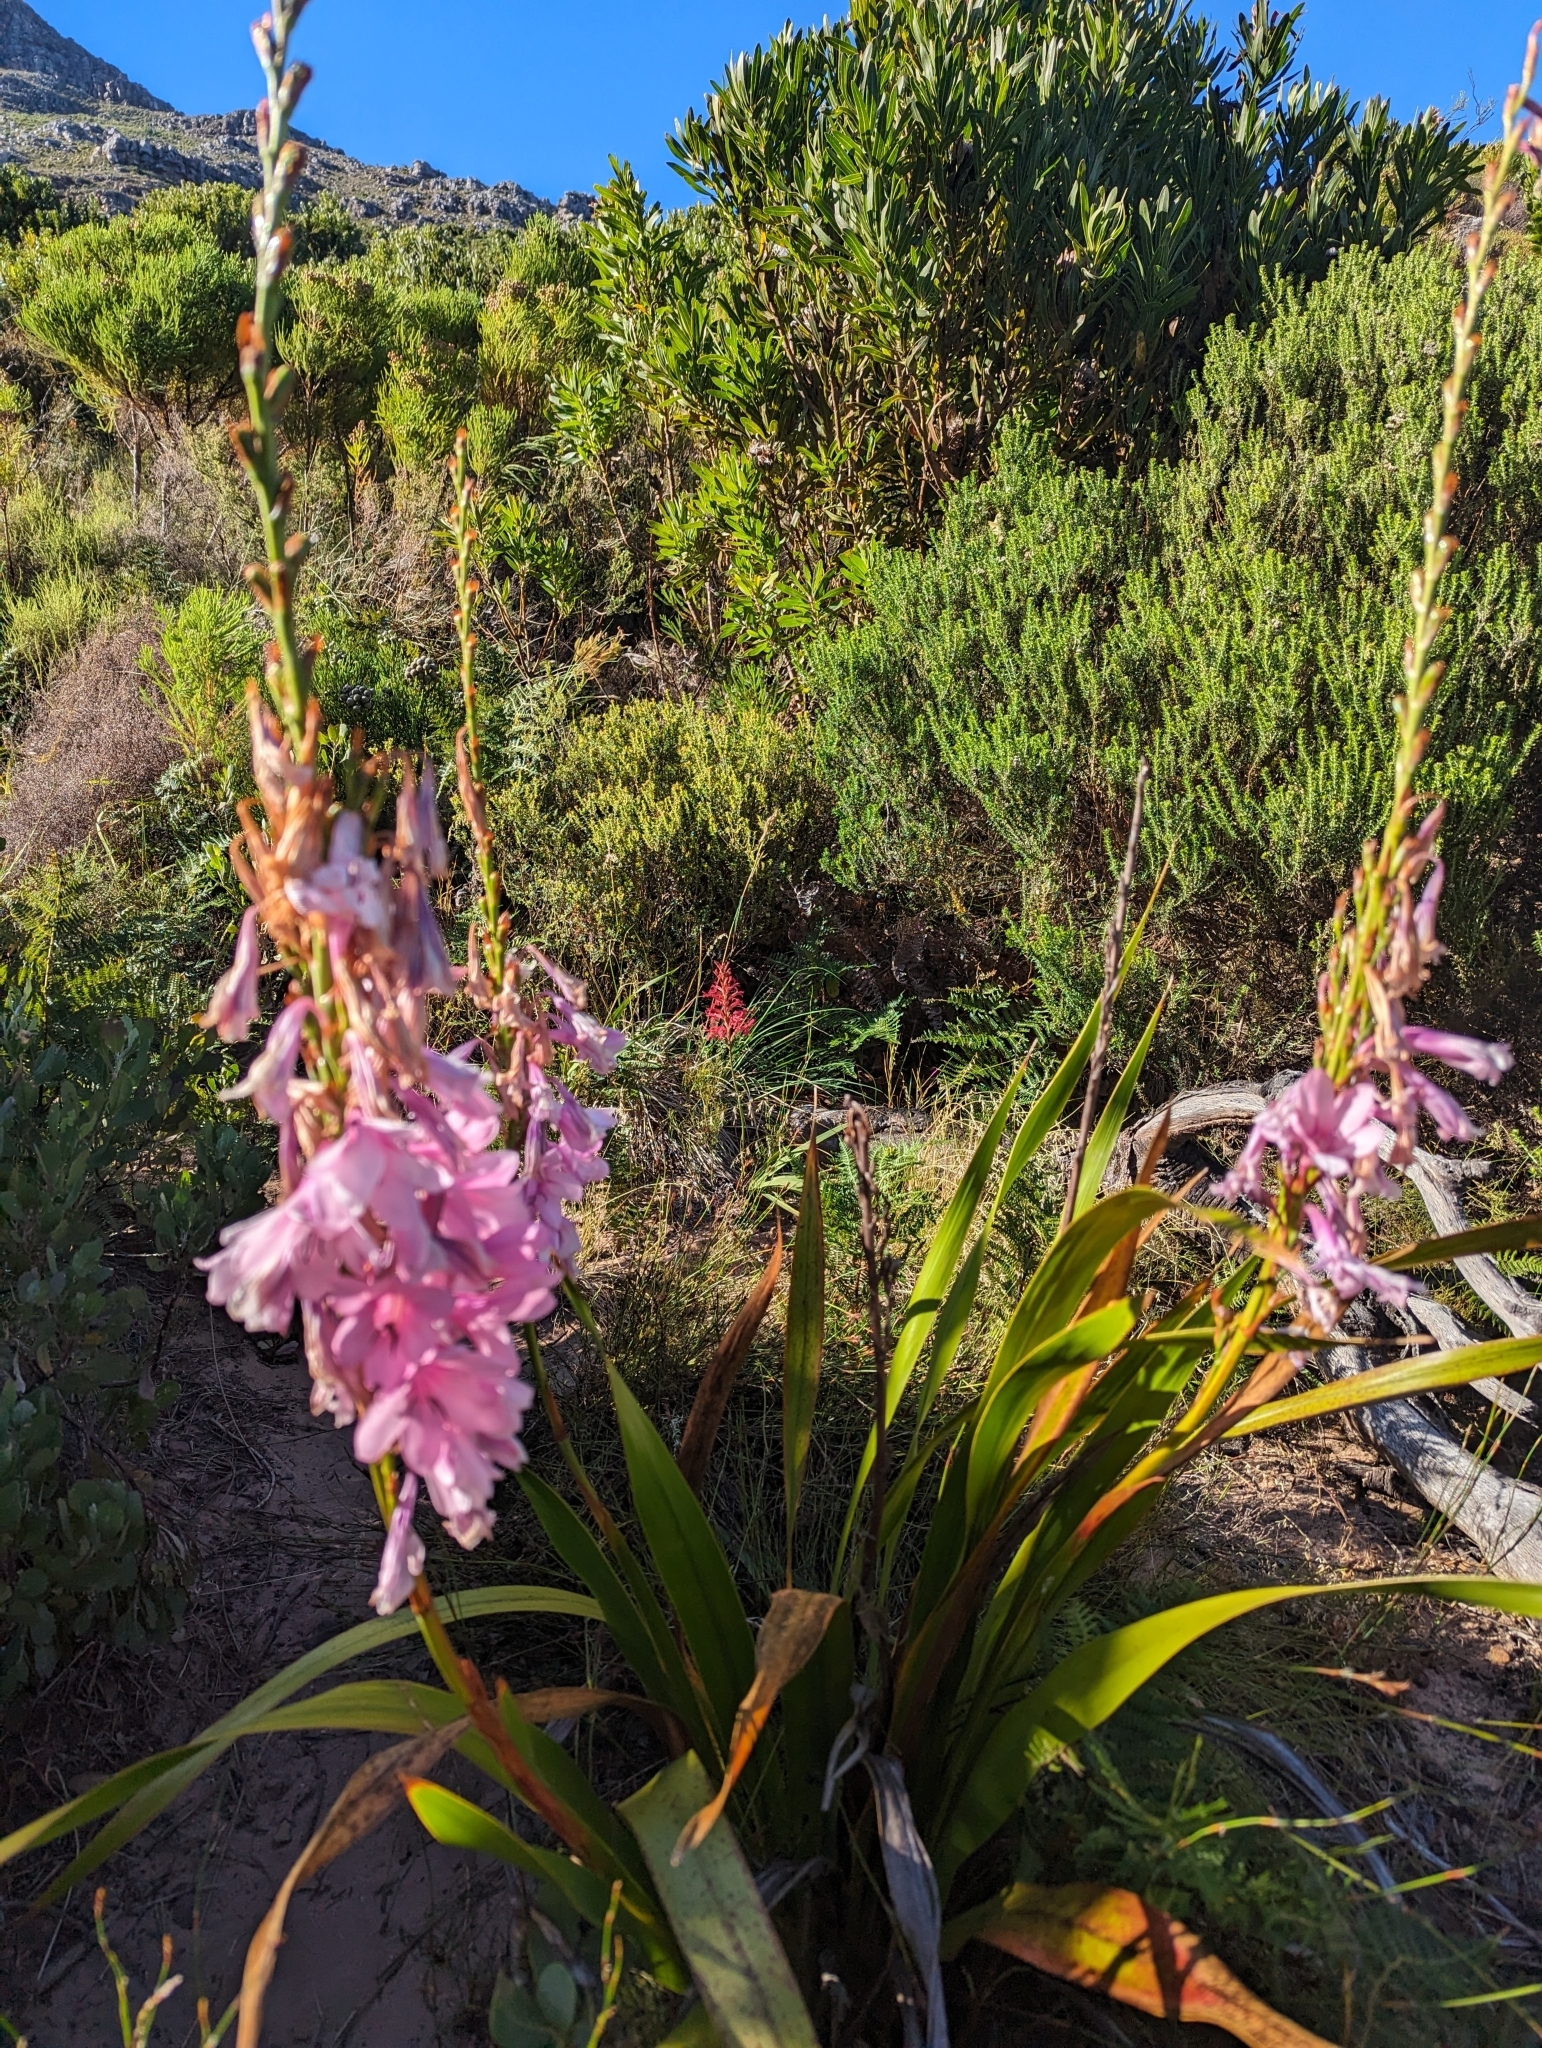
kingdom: Plantae
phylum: Tracheophyta
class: Liliopsida
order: Asparagales
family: Iridaceae
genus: Watsonia
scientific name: Watsonia borbonica
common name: Bugle-lily
